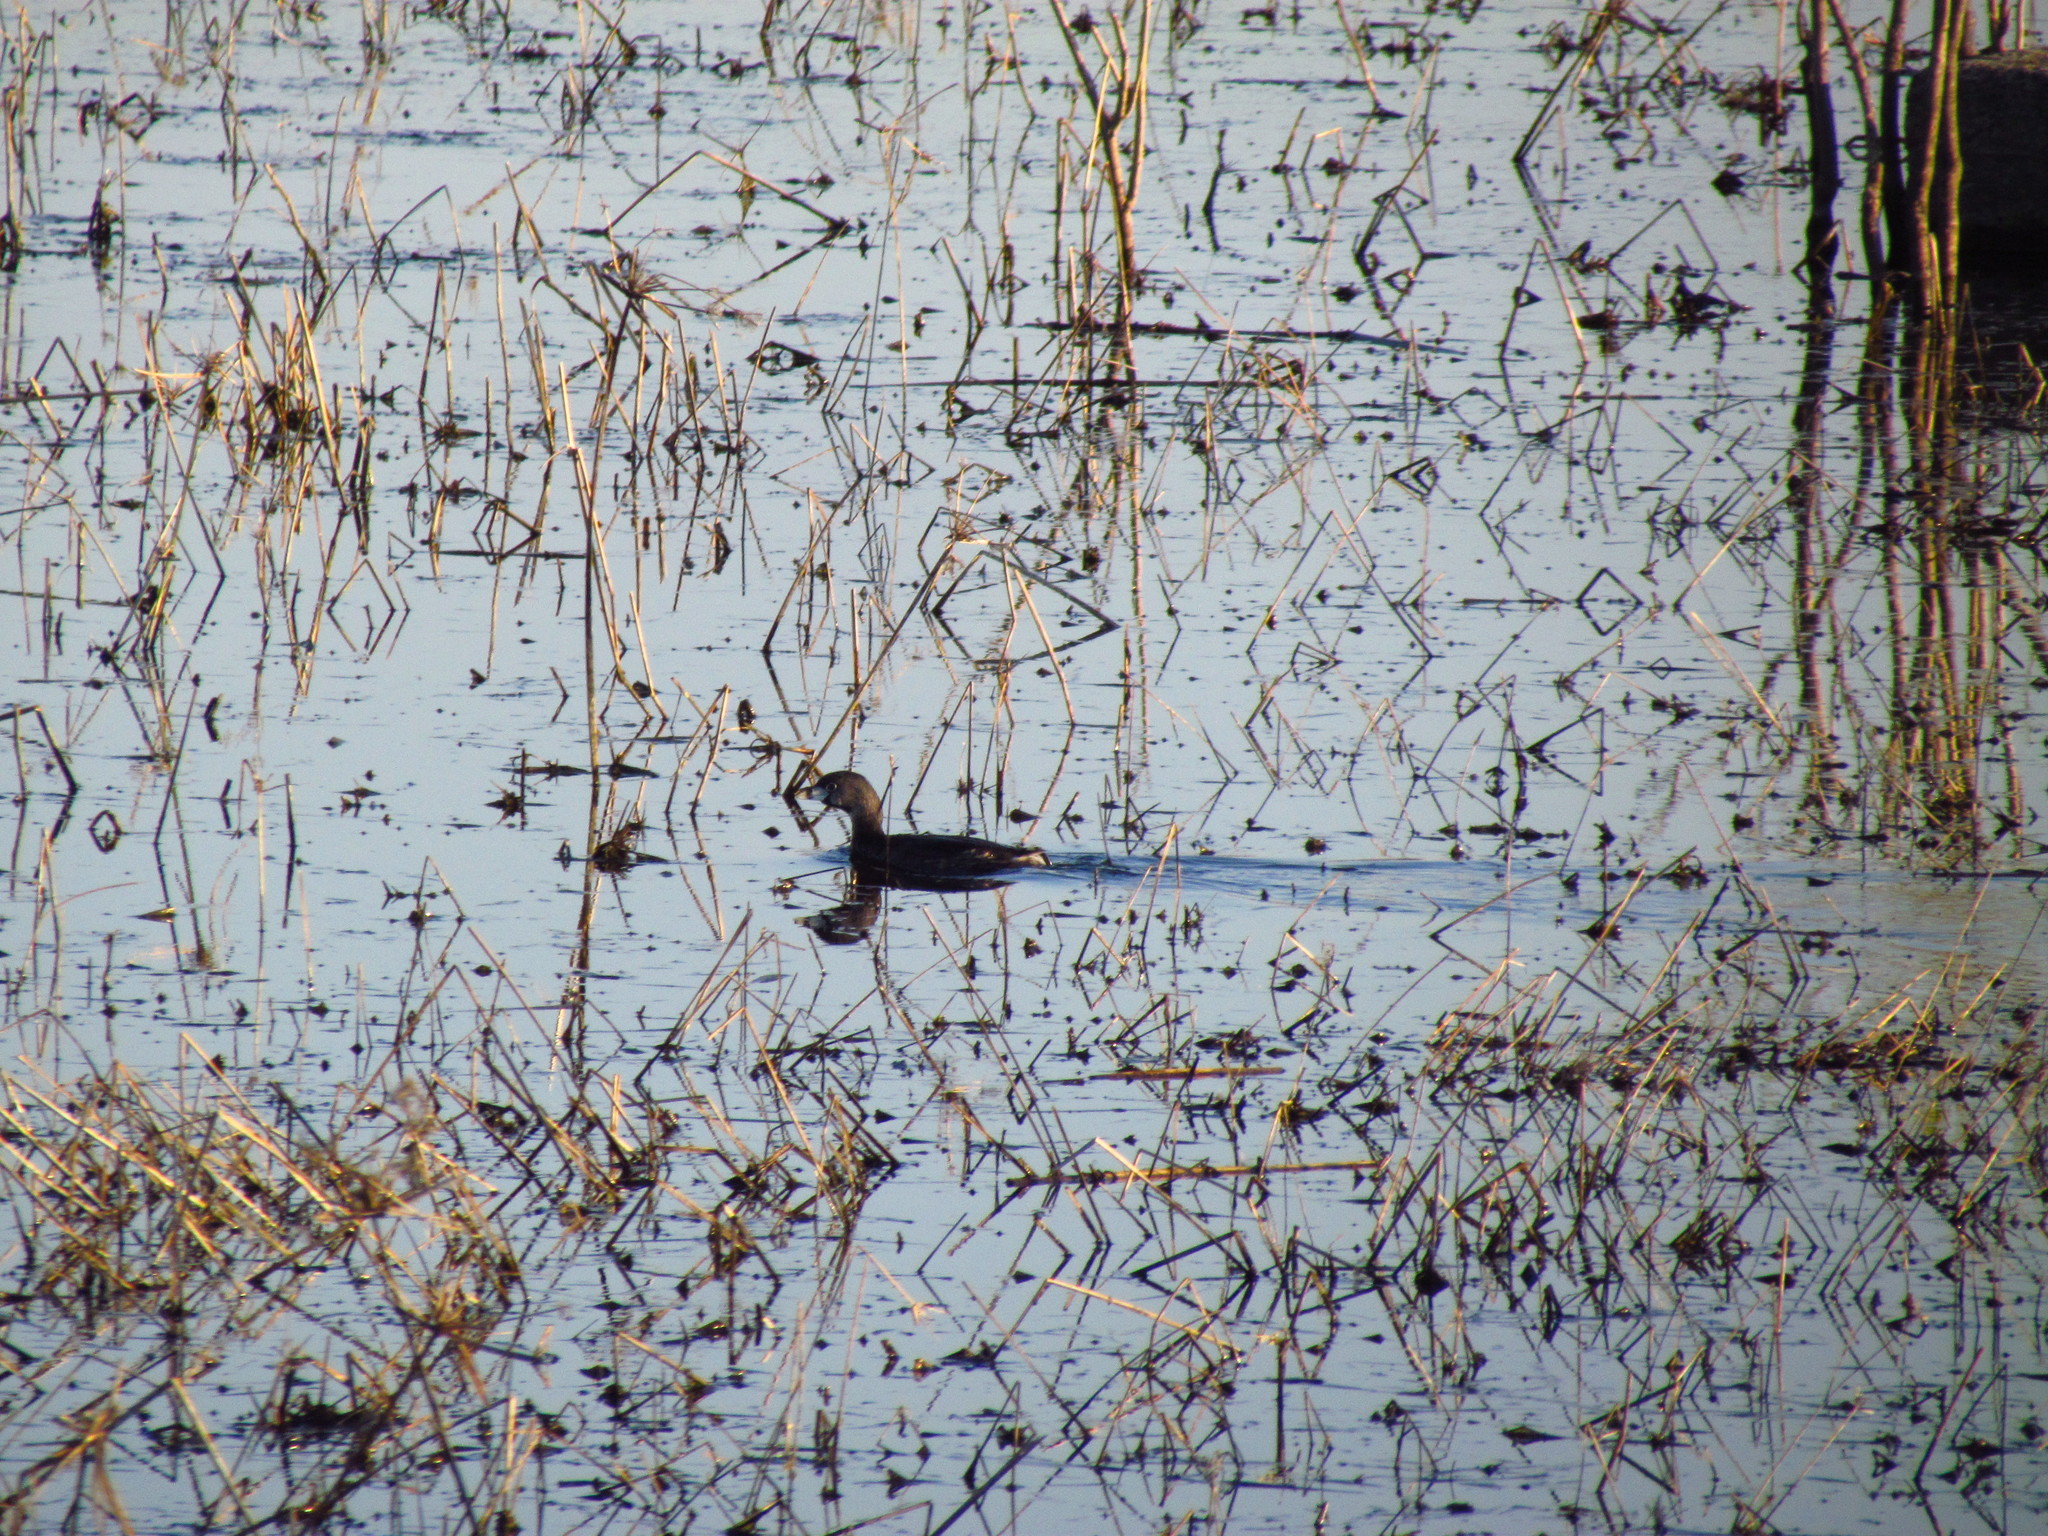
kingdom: Animalia
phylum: Chordata
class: Aves
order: Podicipediformes
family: Podicipedidae
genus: Podilymbus
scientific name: Podilymbus podiceps
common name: Pied-billed grebe
